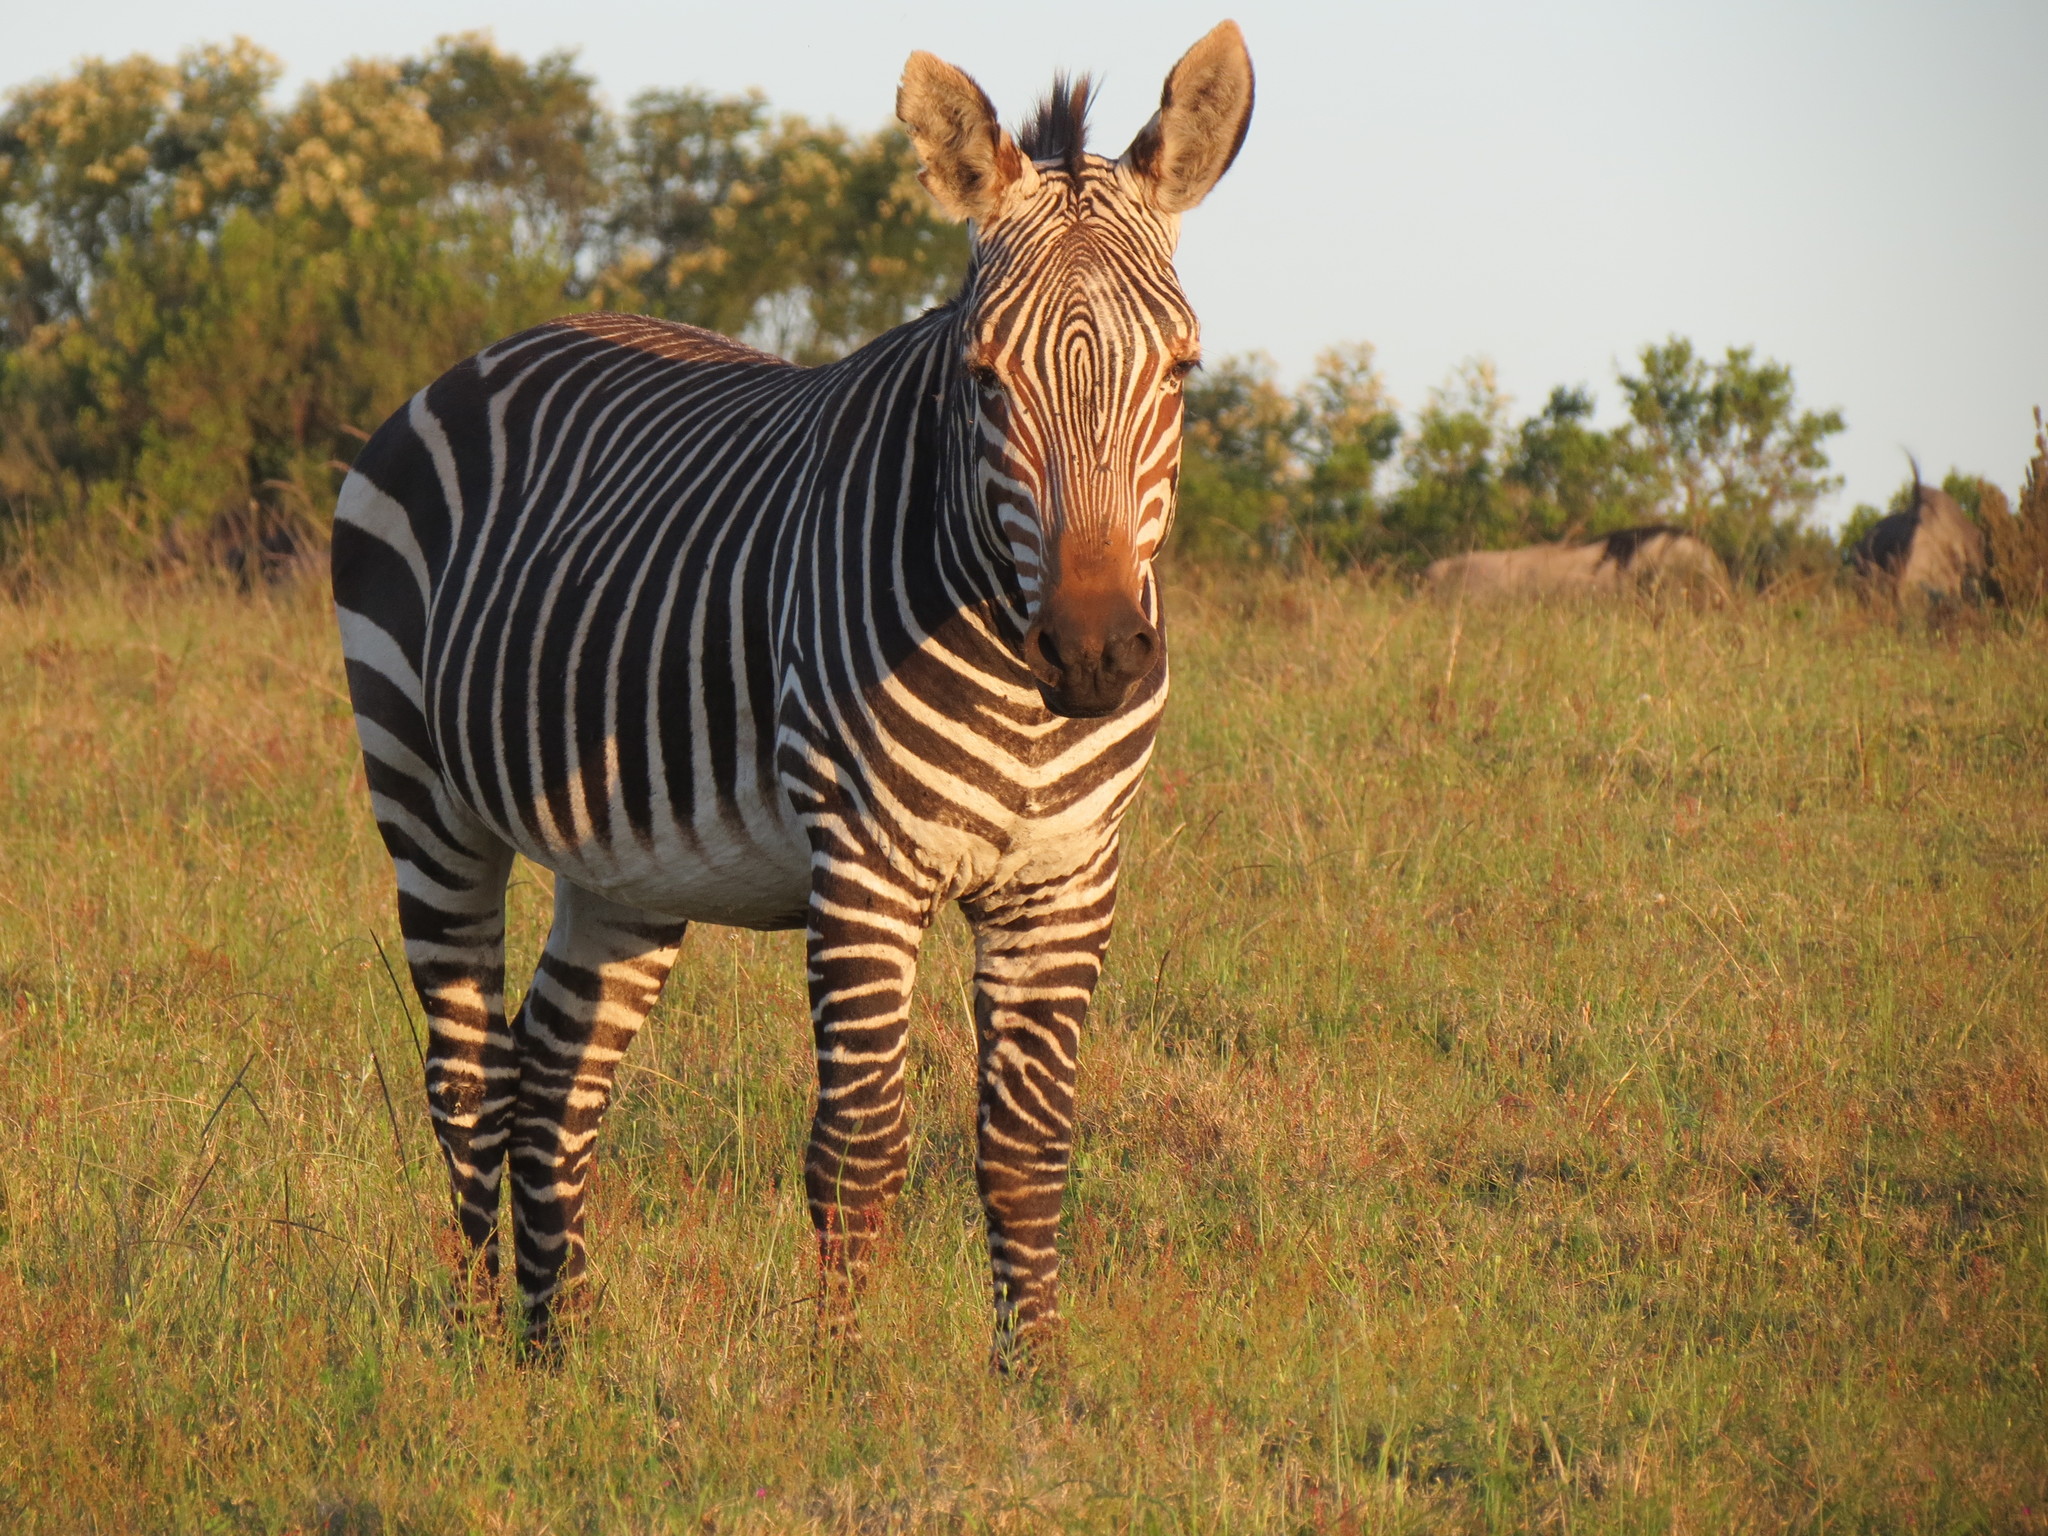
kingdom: Animalia
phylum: Chordata
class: Mammalia
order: Perissodactyla
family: Equidae
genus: Equus
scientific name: Equus zebra
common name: Mountain zebra
